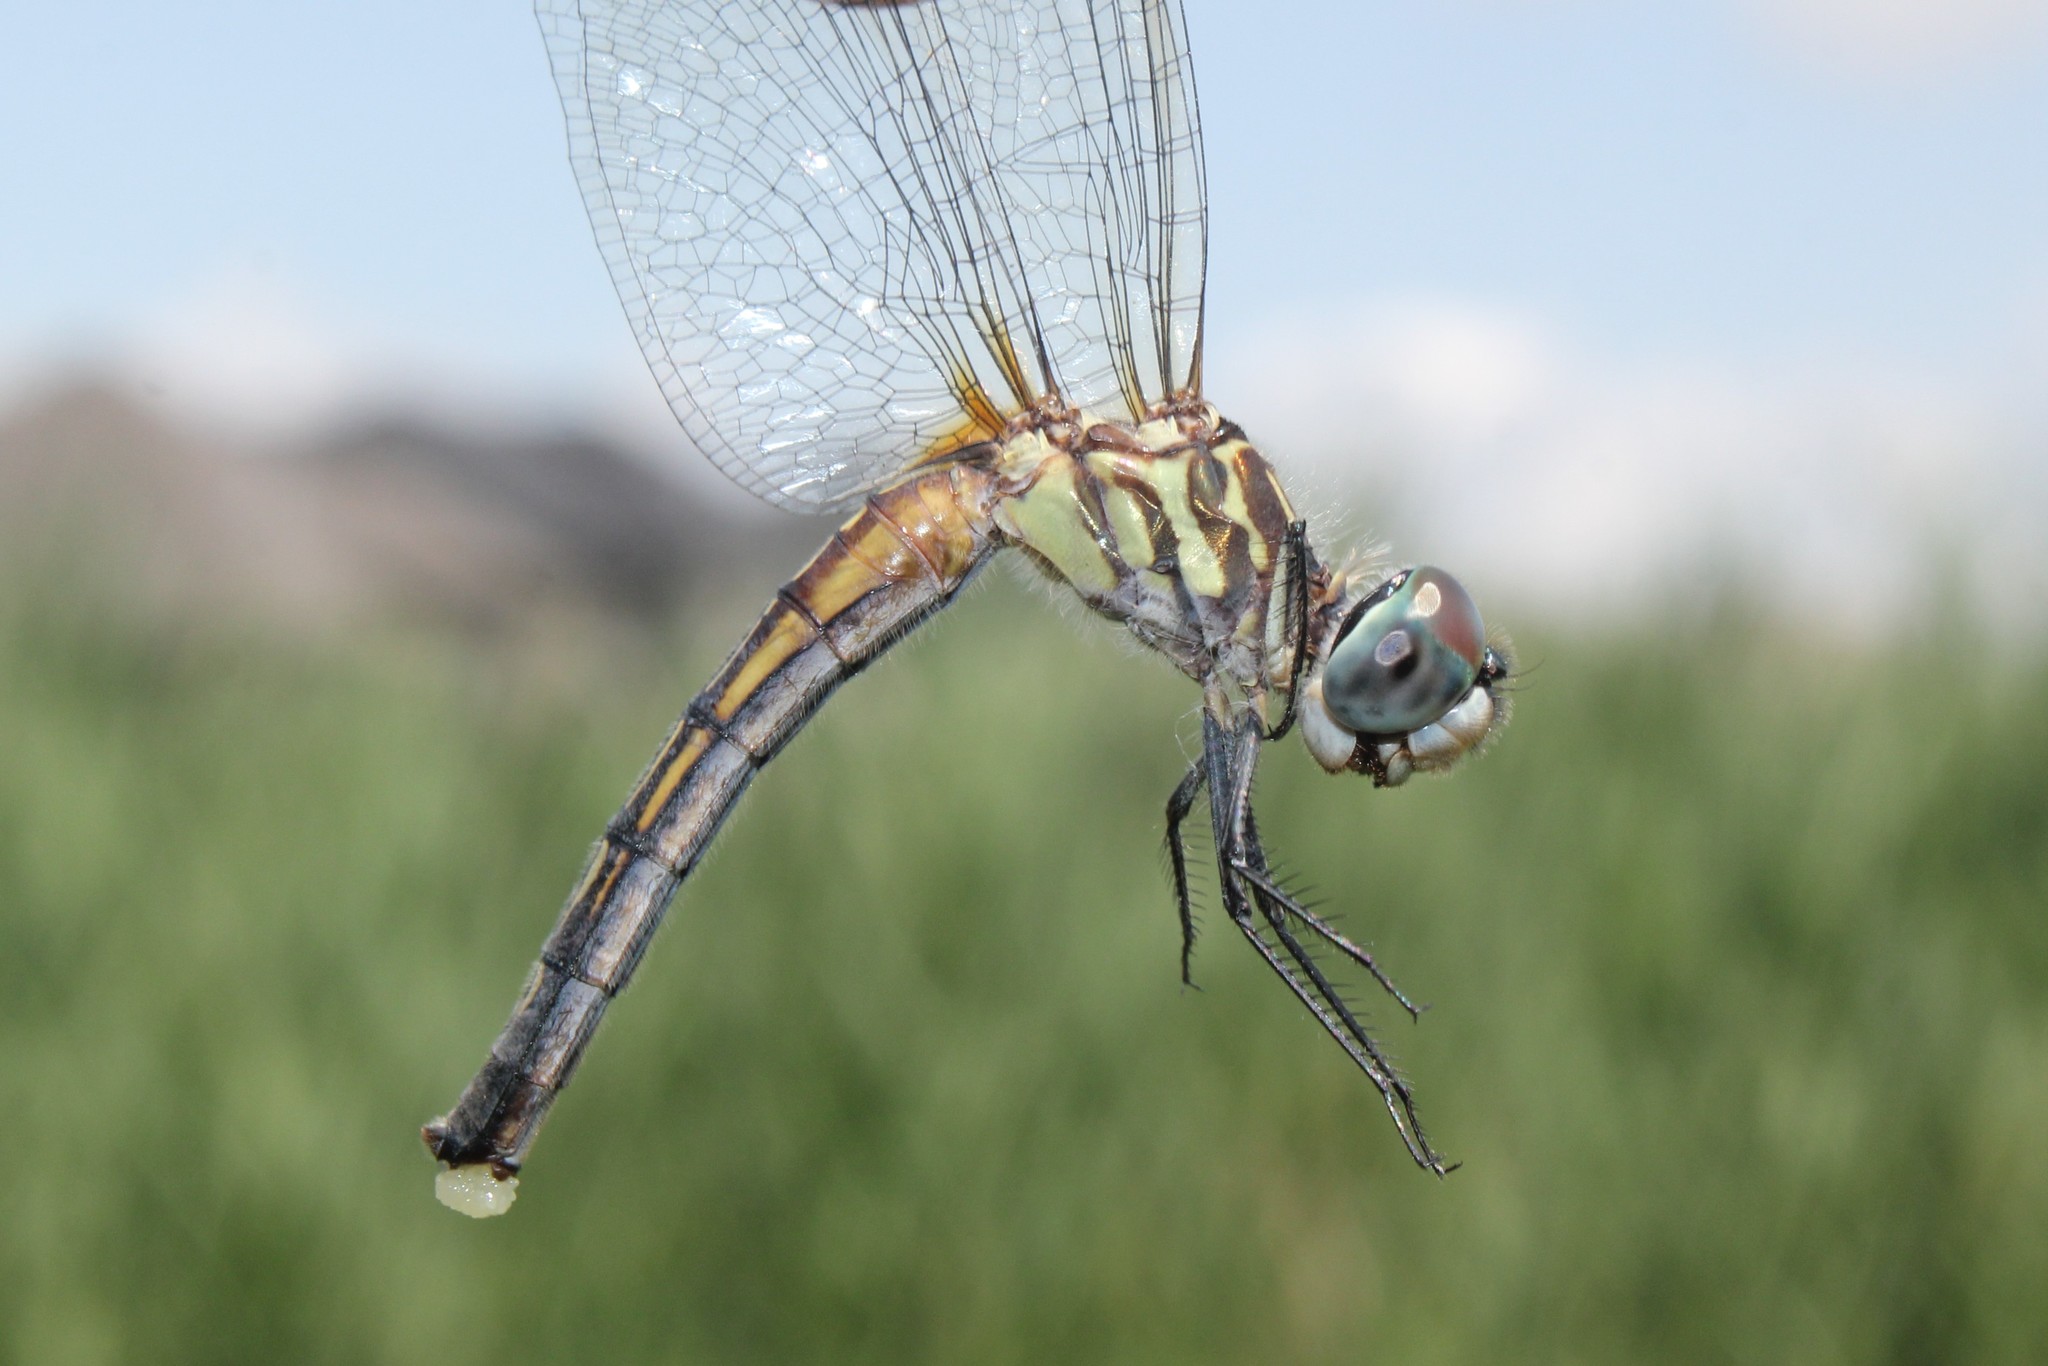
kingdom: Animalia
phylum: Arthropoda
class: Insecta
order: Odonata
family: Libellulidae
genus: Pachydiplax
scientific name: Pachydiplax longipennis
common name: Blue dasher
